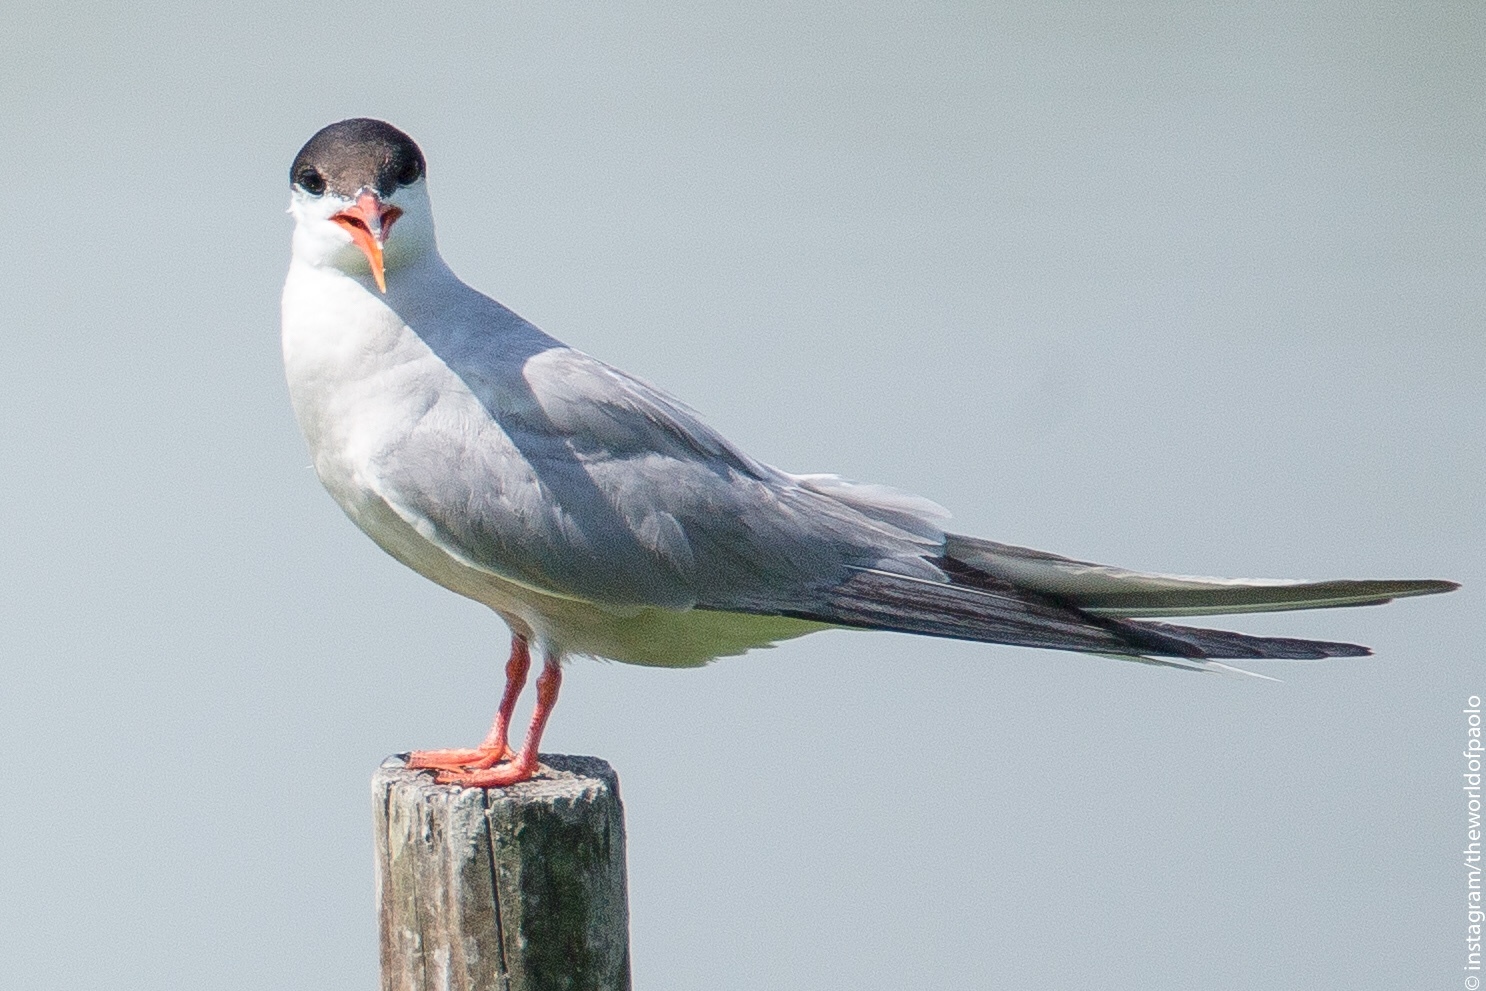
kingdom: Animalia
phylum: Chordata
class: Aves
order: Charadriiformes
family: Laridae
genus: Sterna
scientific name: Sterna hirundo
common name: Common tern
